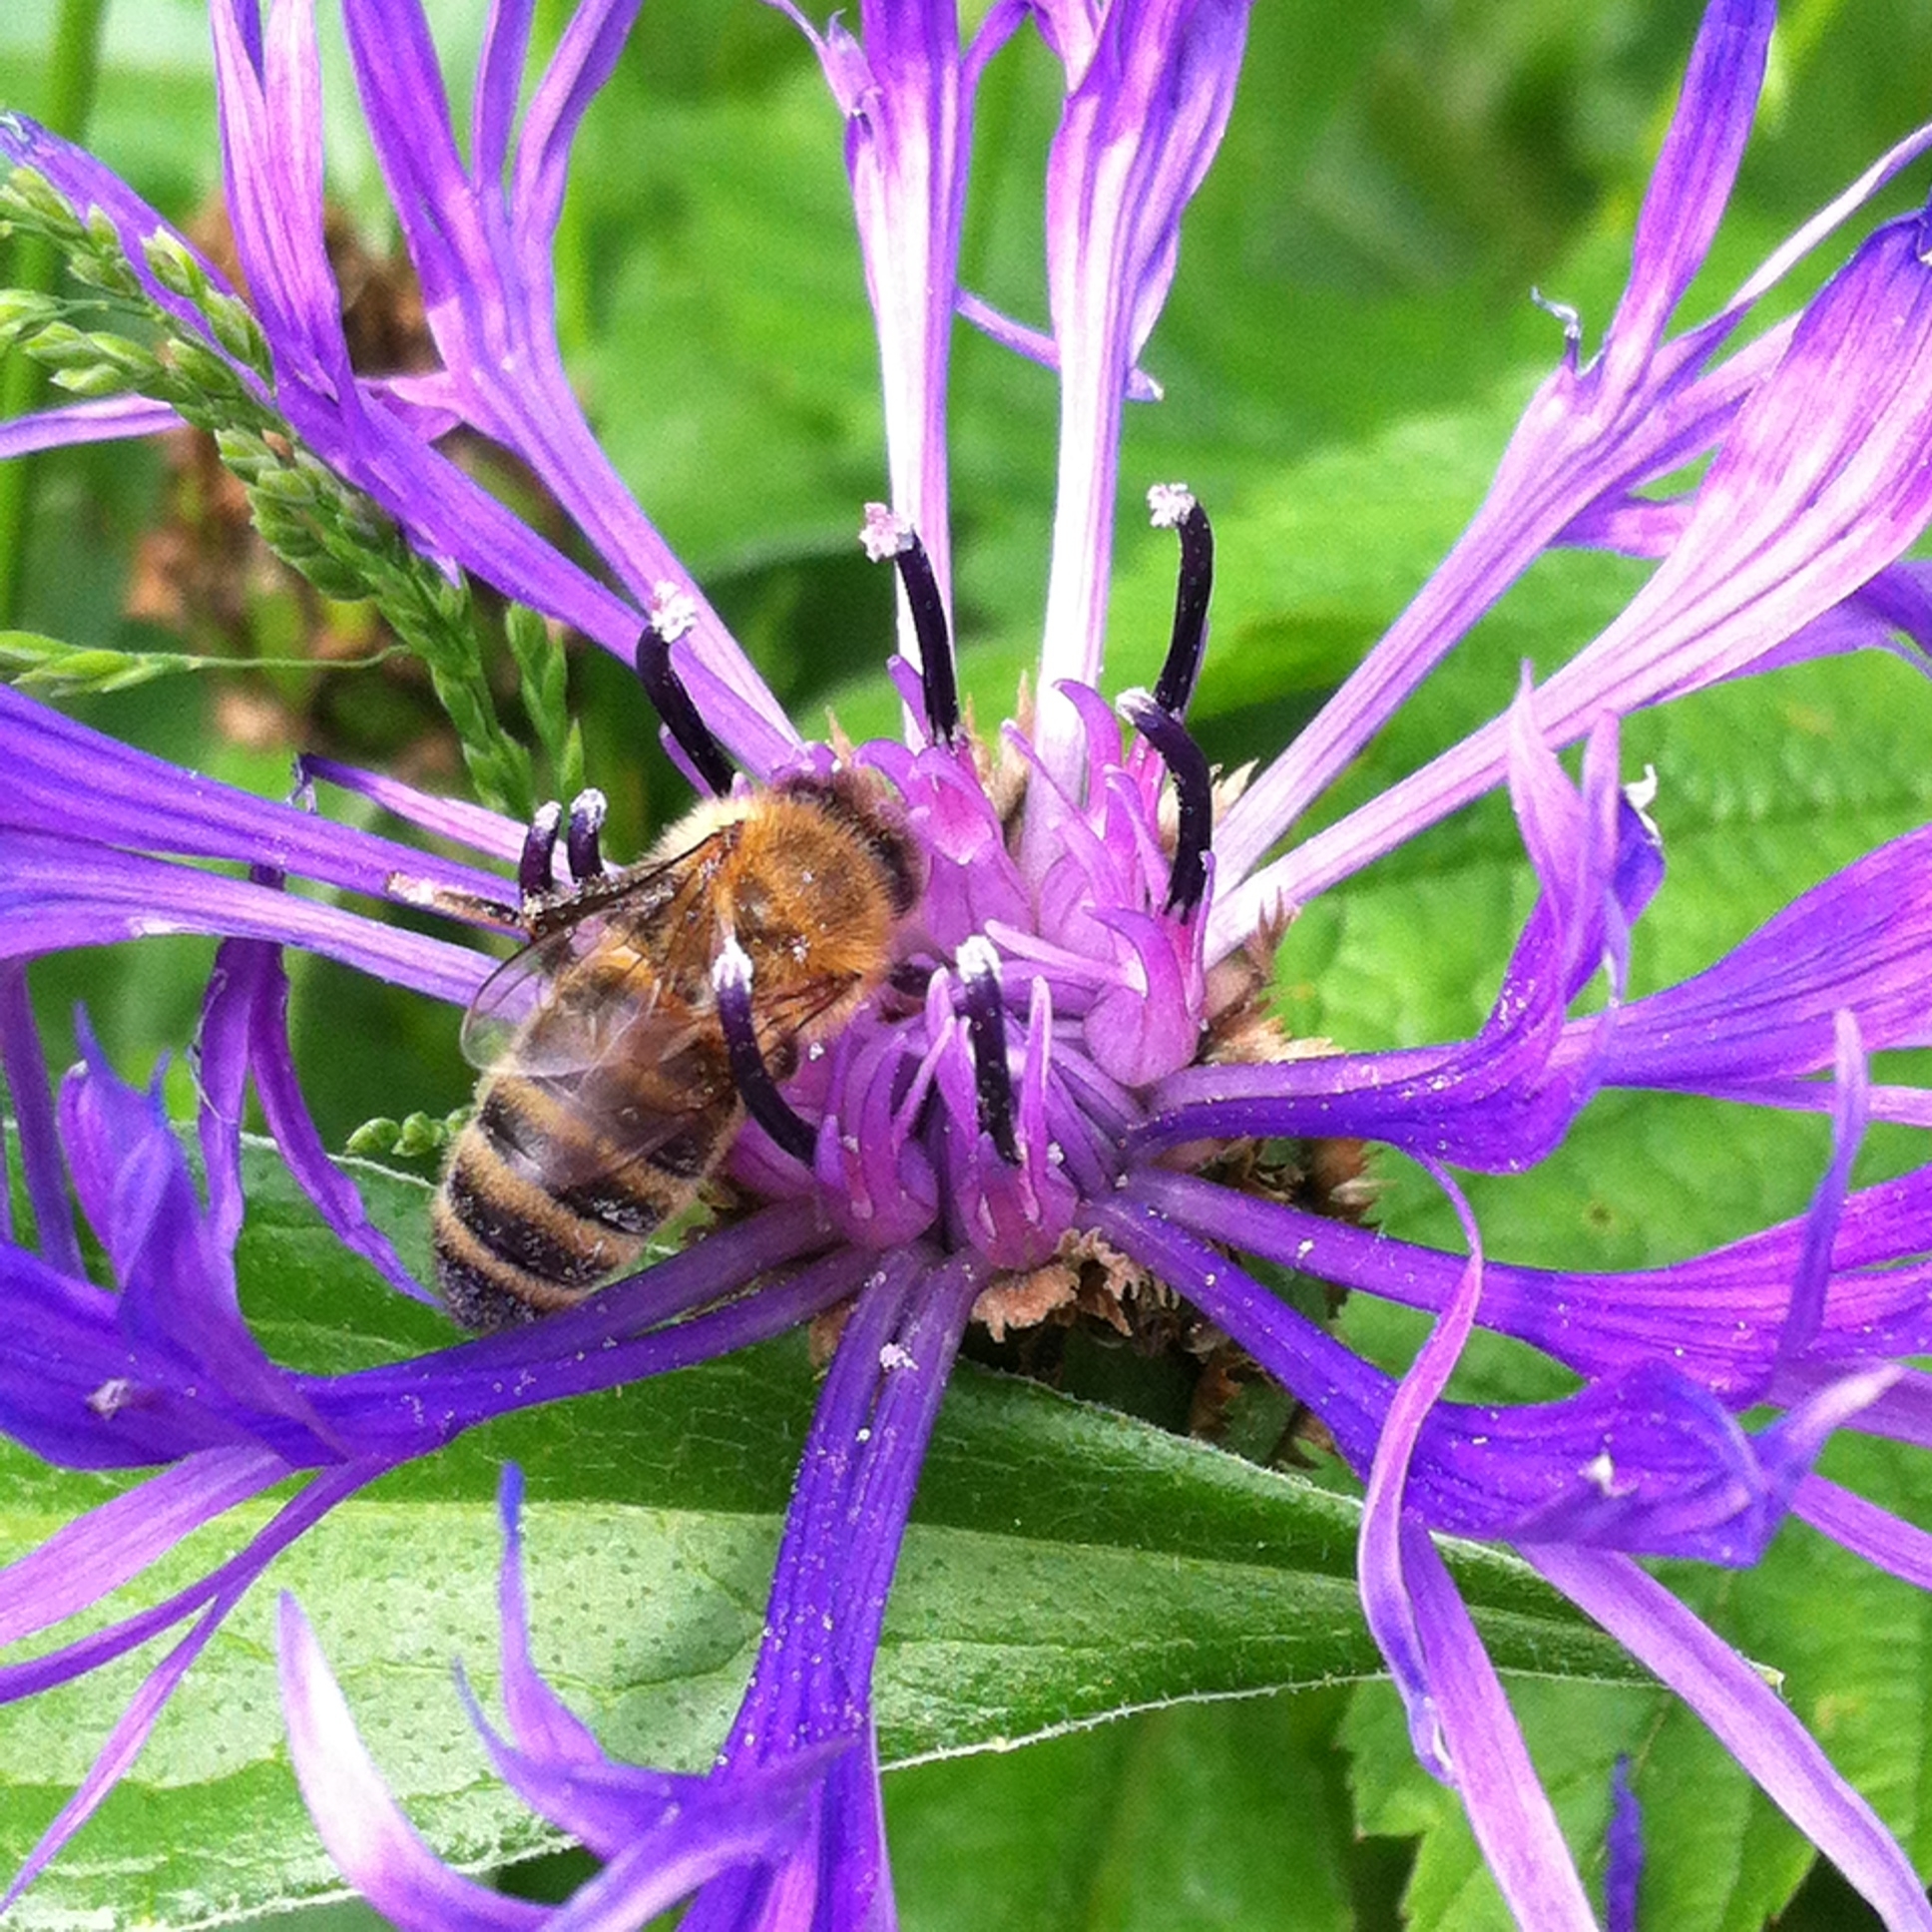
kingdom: Animalia
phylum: Arthropoda
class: Insecta
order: Hymenoptera
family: Apidae
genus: Apis
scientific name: Apis mellifera
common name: Honey bee
